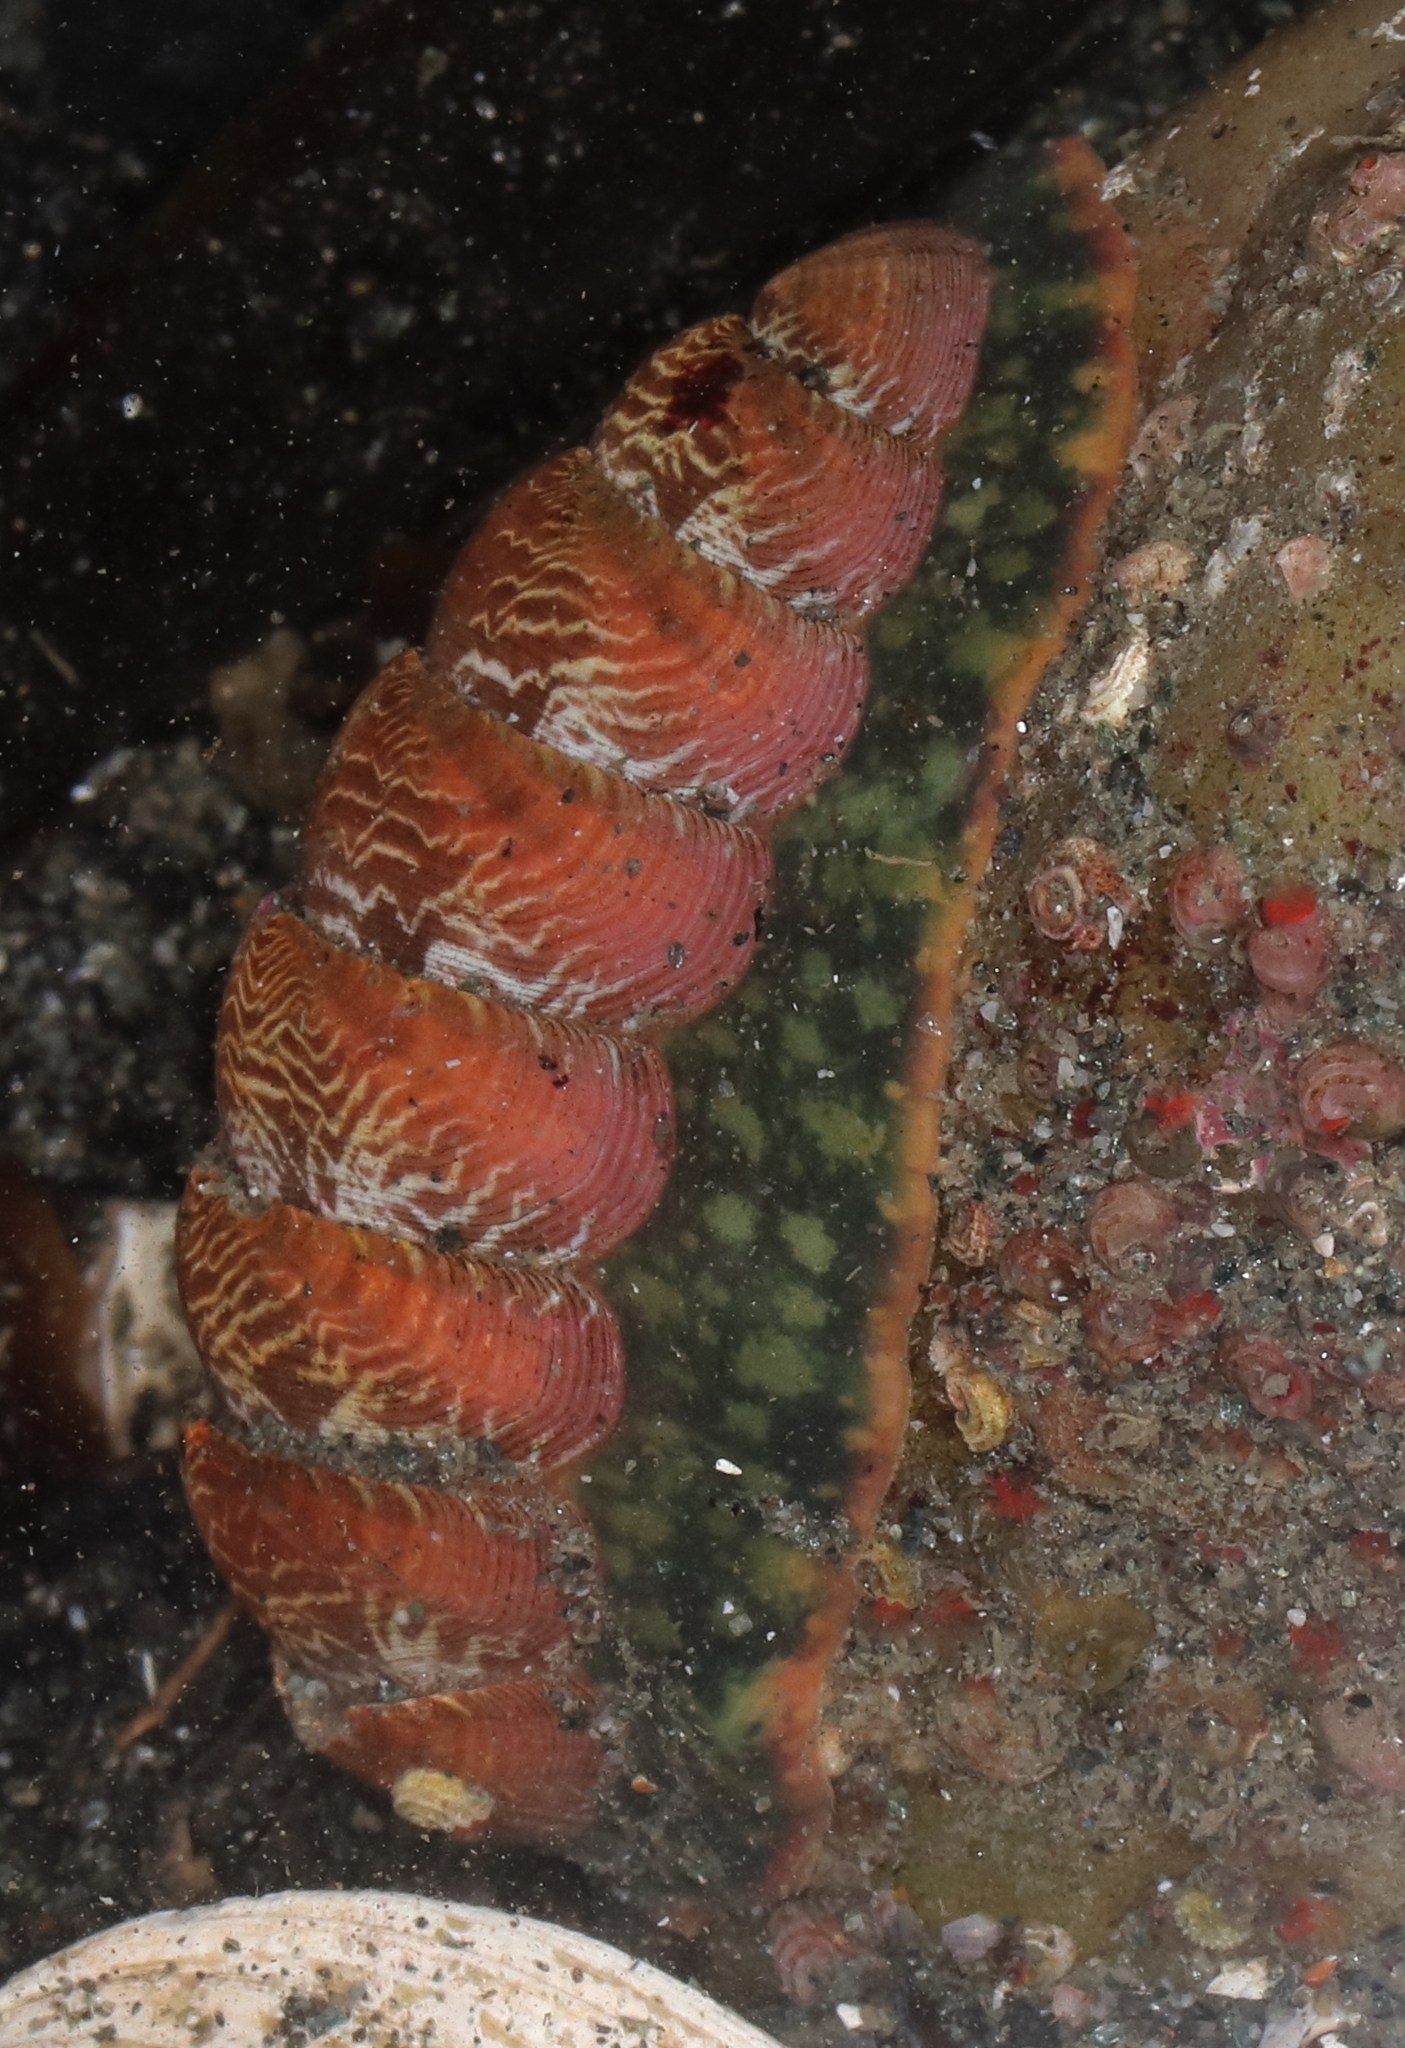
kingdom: Animalia
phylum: Mollusca
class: Polyplacophora
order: Chitonida
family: Tonicellidae
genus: Tonicella
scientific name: Tonicella insignis
